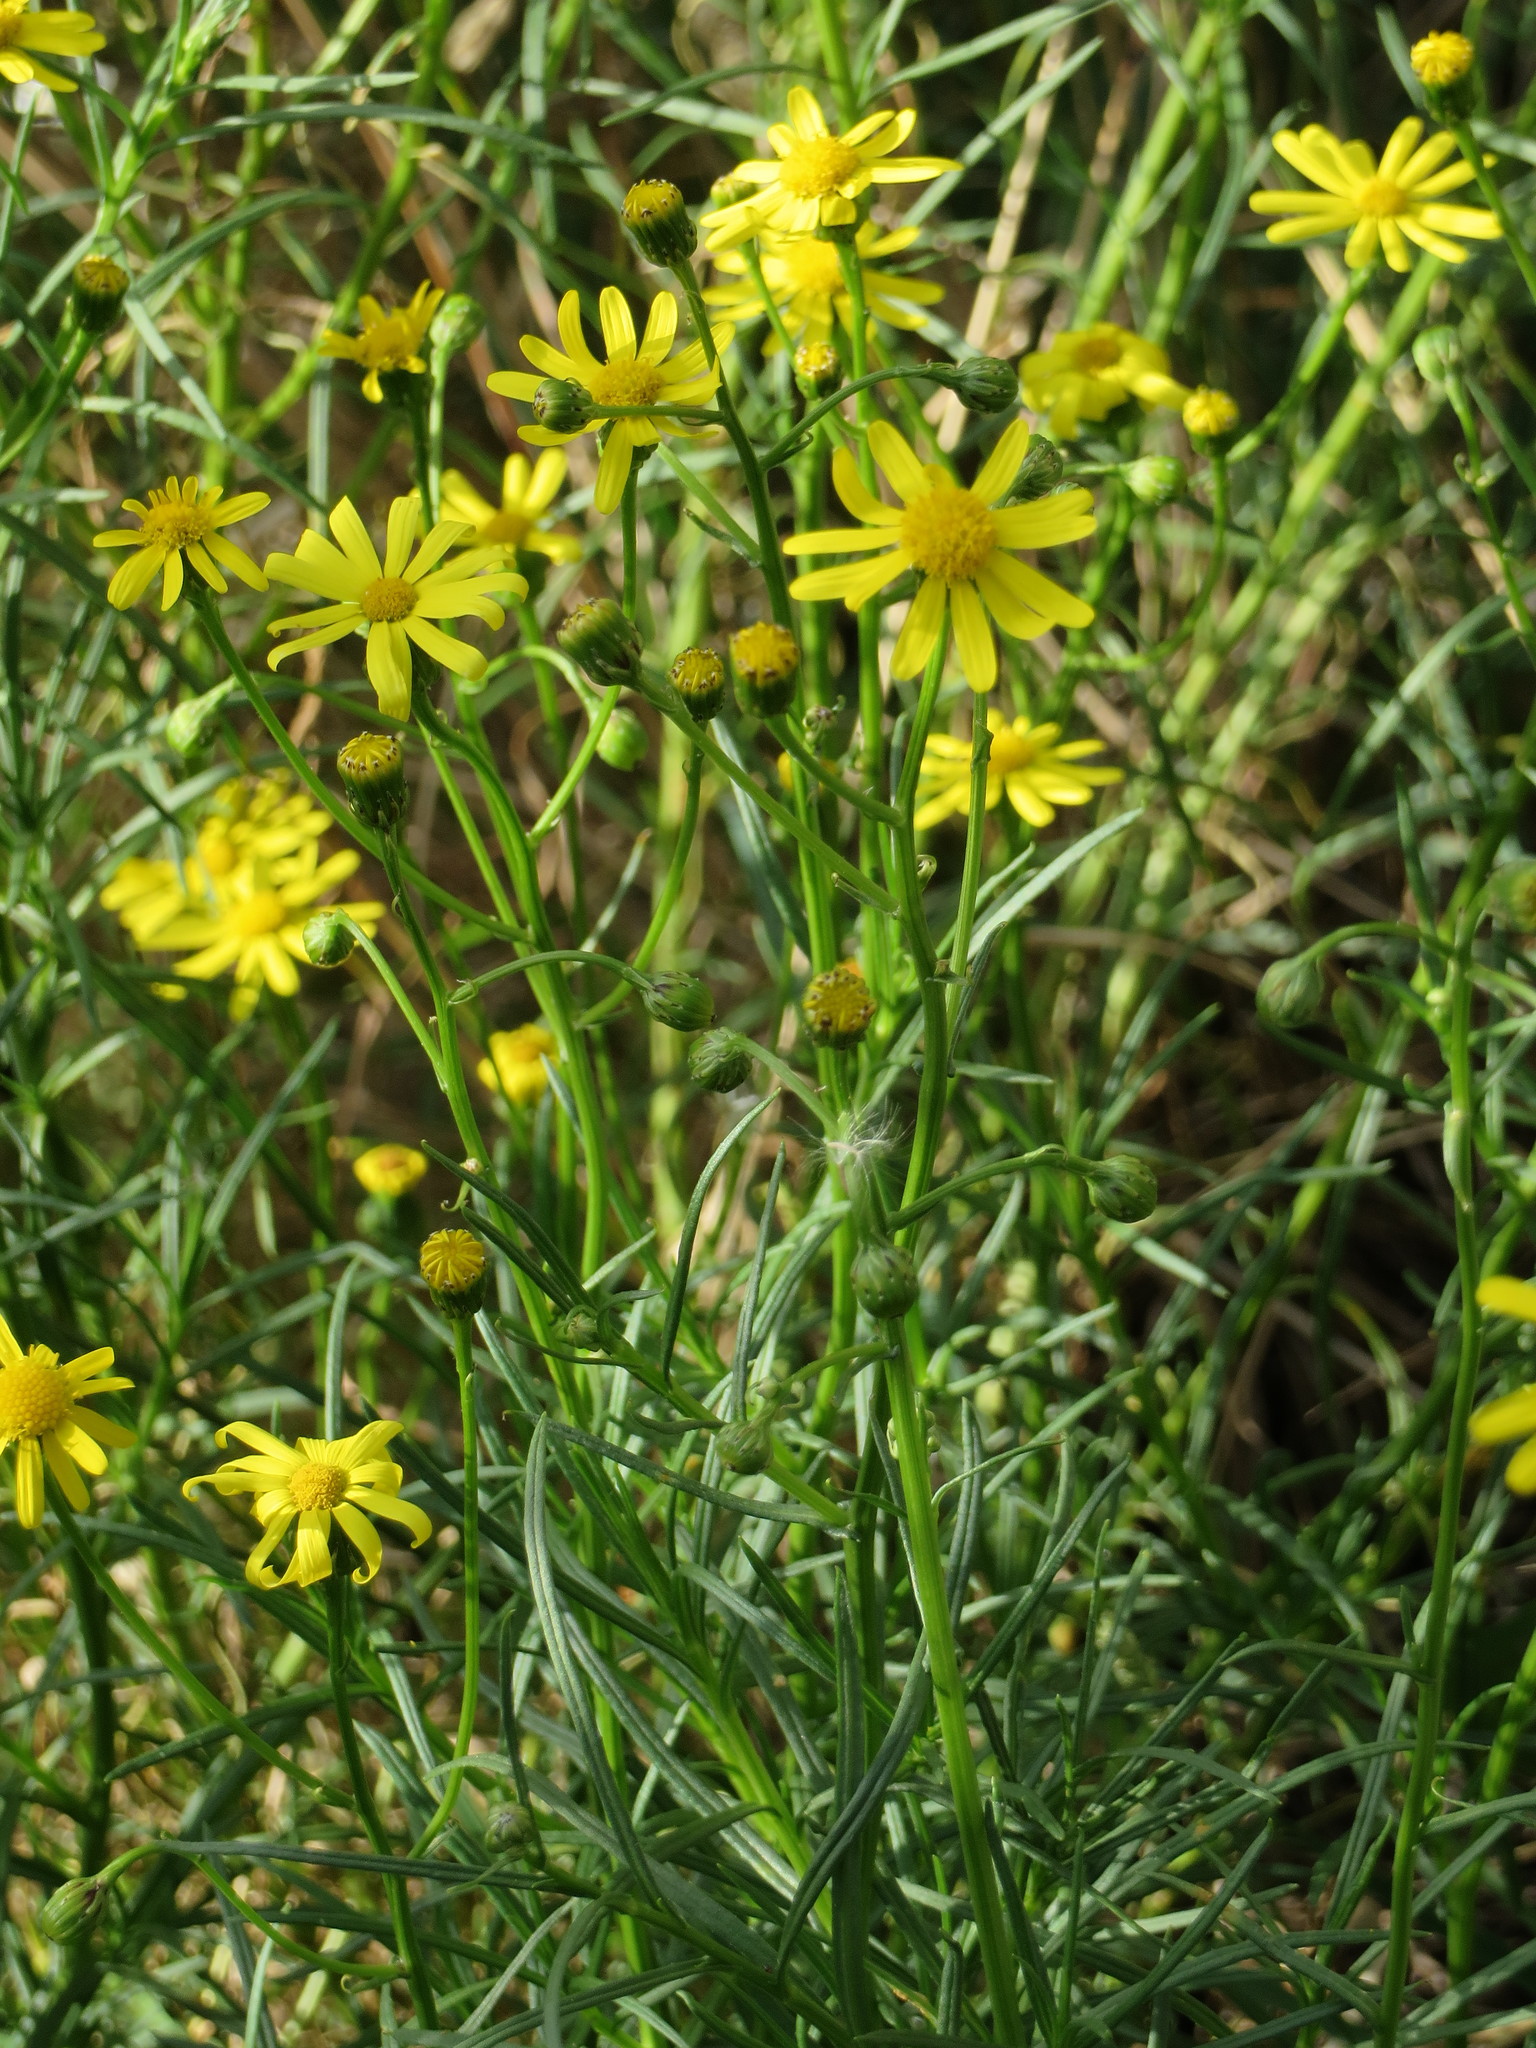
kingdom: Plantae
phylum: Tracheophyta
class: Magnoliopsida
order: Asterales
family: Asteraceae
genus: Senecio
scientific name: Senecio inaequidens
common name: Narrow-leaved ragwort
